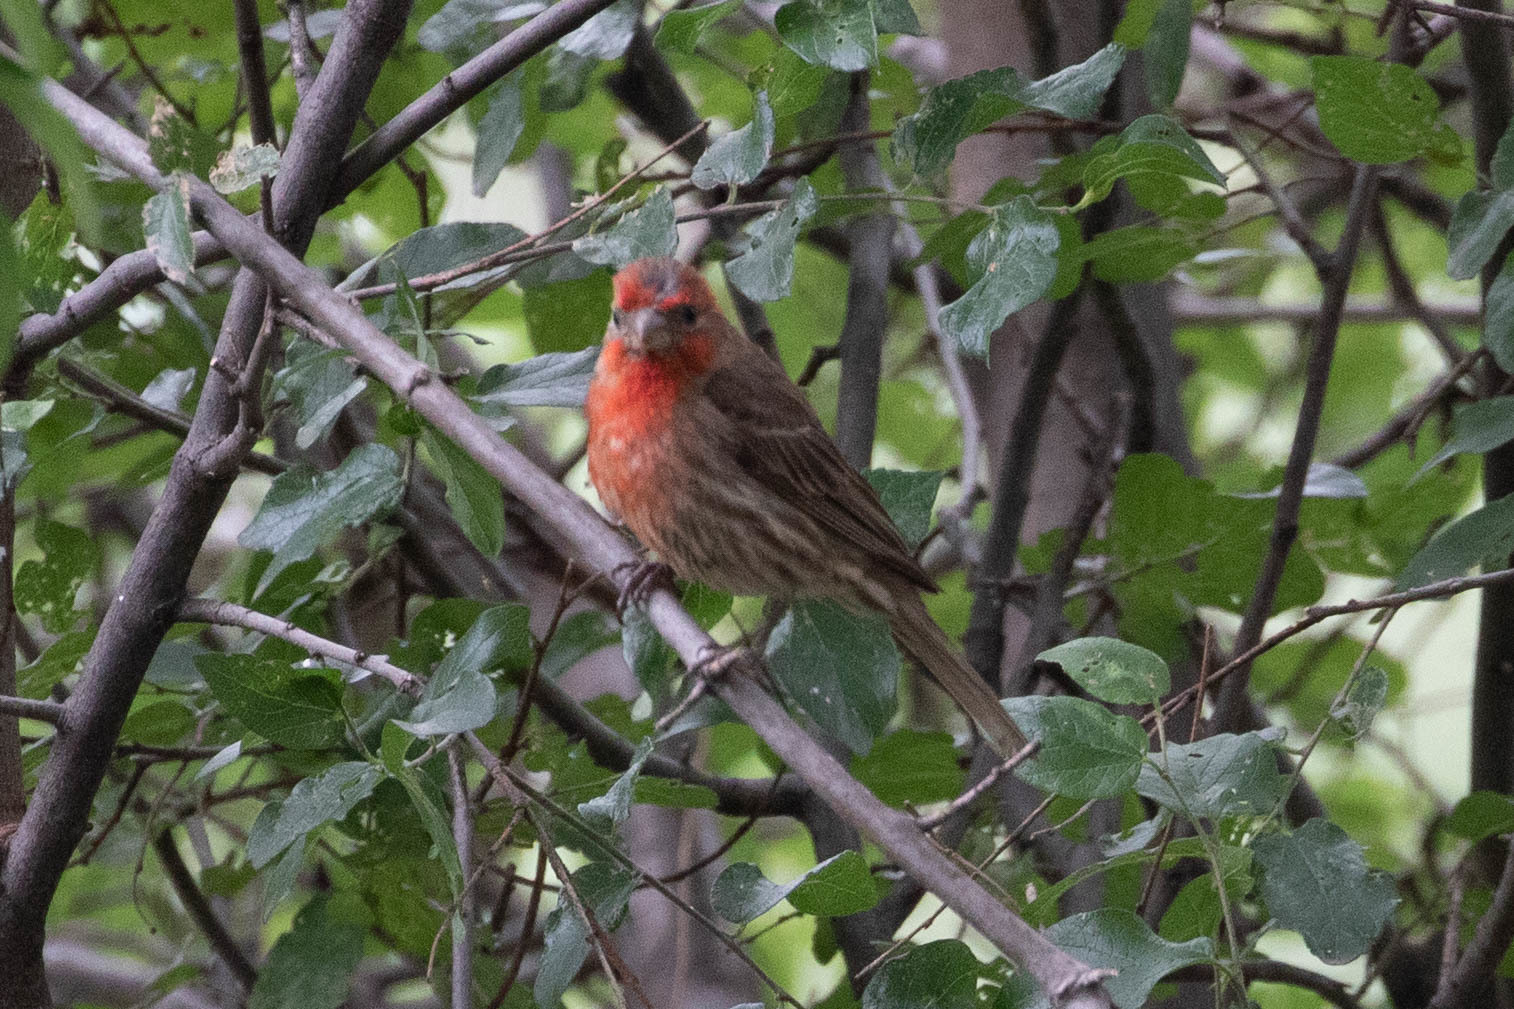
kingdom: Animalia
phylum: Chordata
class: Aves
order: Passeriformes
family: Fringillidae
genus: Haemorhous
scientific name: Haemorhous mexicanus
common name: House finch
